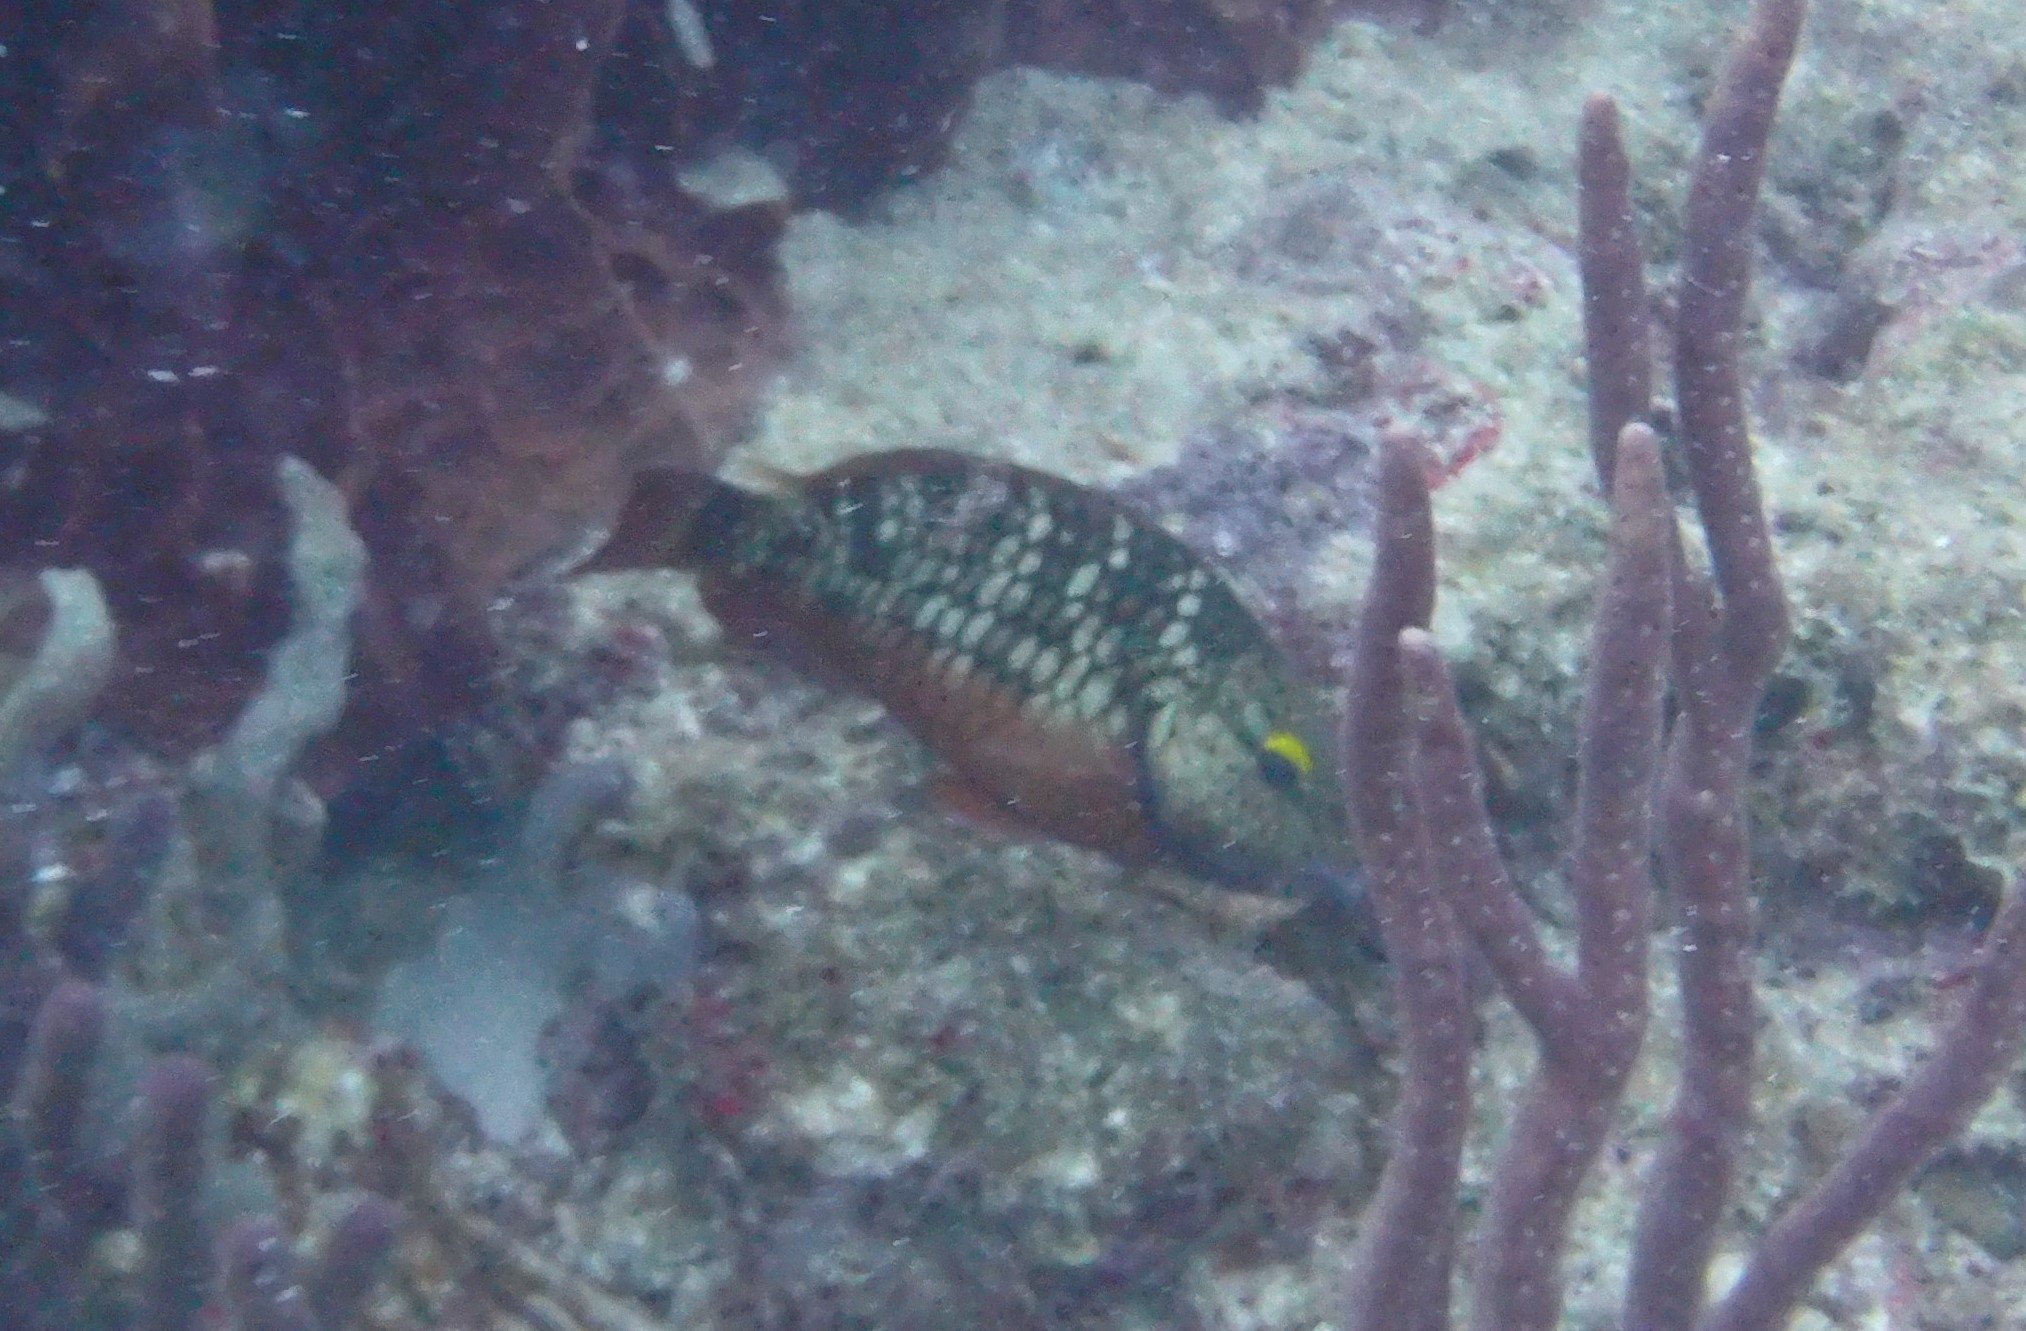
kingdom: Animalia
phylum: Chordata
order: Perciformes
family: Scaridae
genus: Sparisoma
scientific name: Sparisoma viride
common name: Stoplight parrotfish
